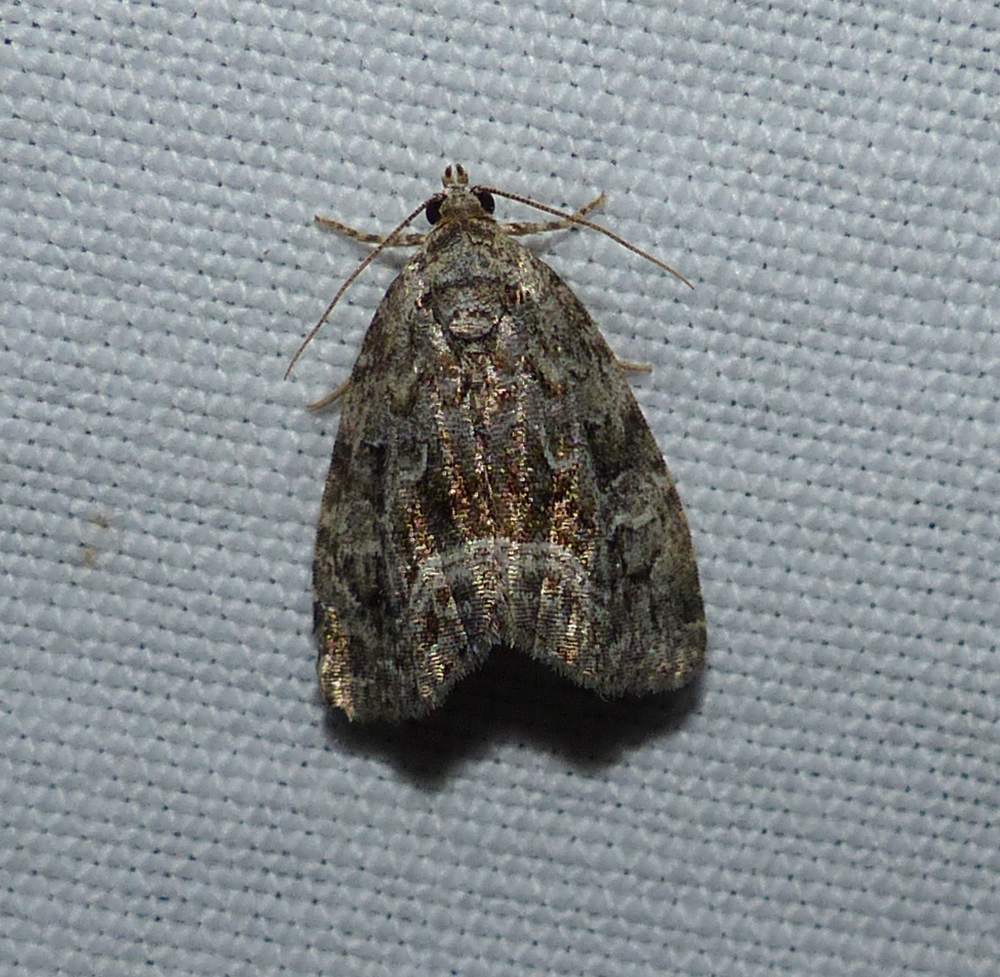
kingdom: Animalia
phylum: Arthropoda
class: Insecta
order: Lepidoptera
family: Noctuidae
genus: Protodeltote
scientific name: Protodeltote muscosula
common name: Large mossy glyph
